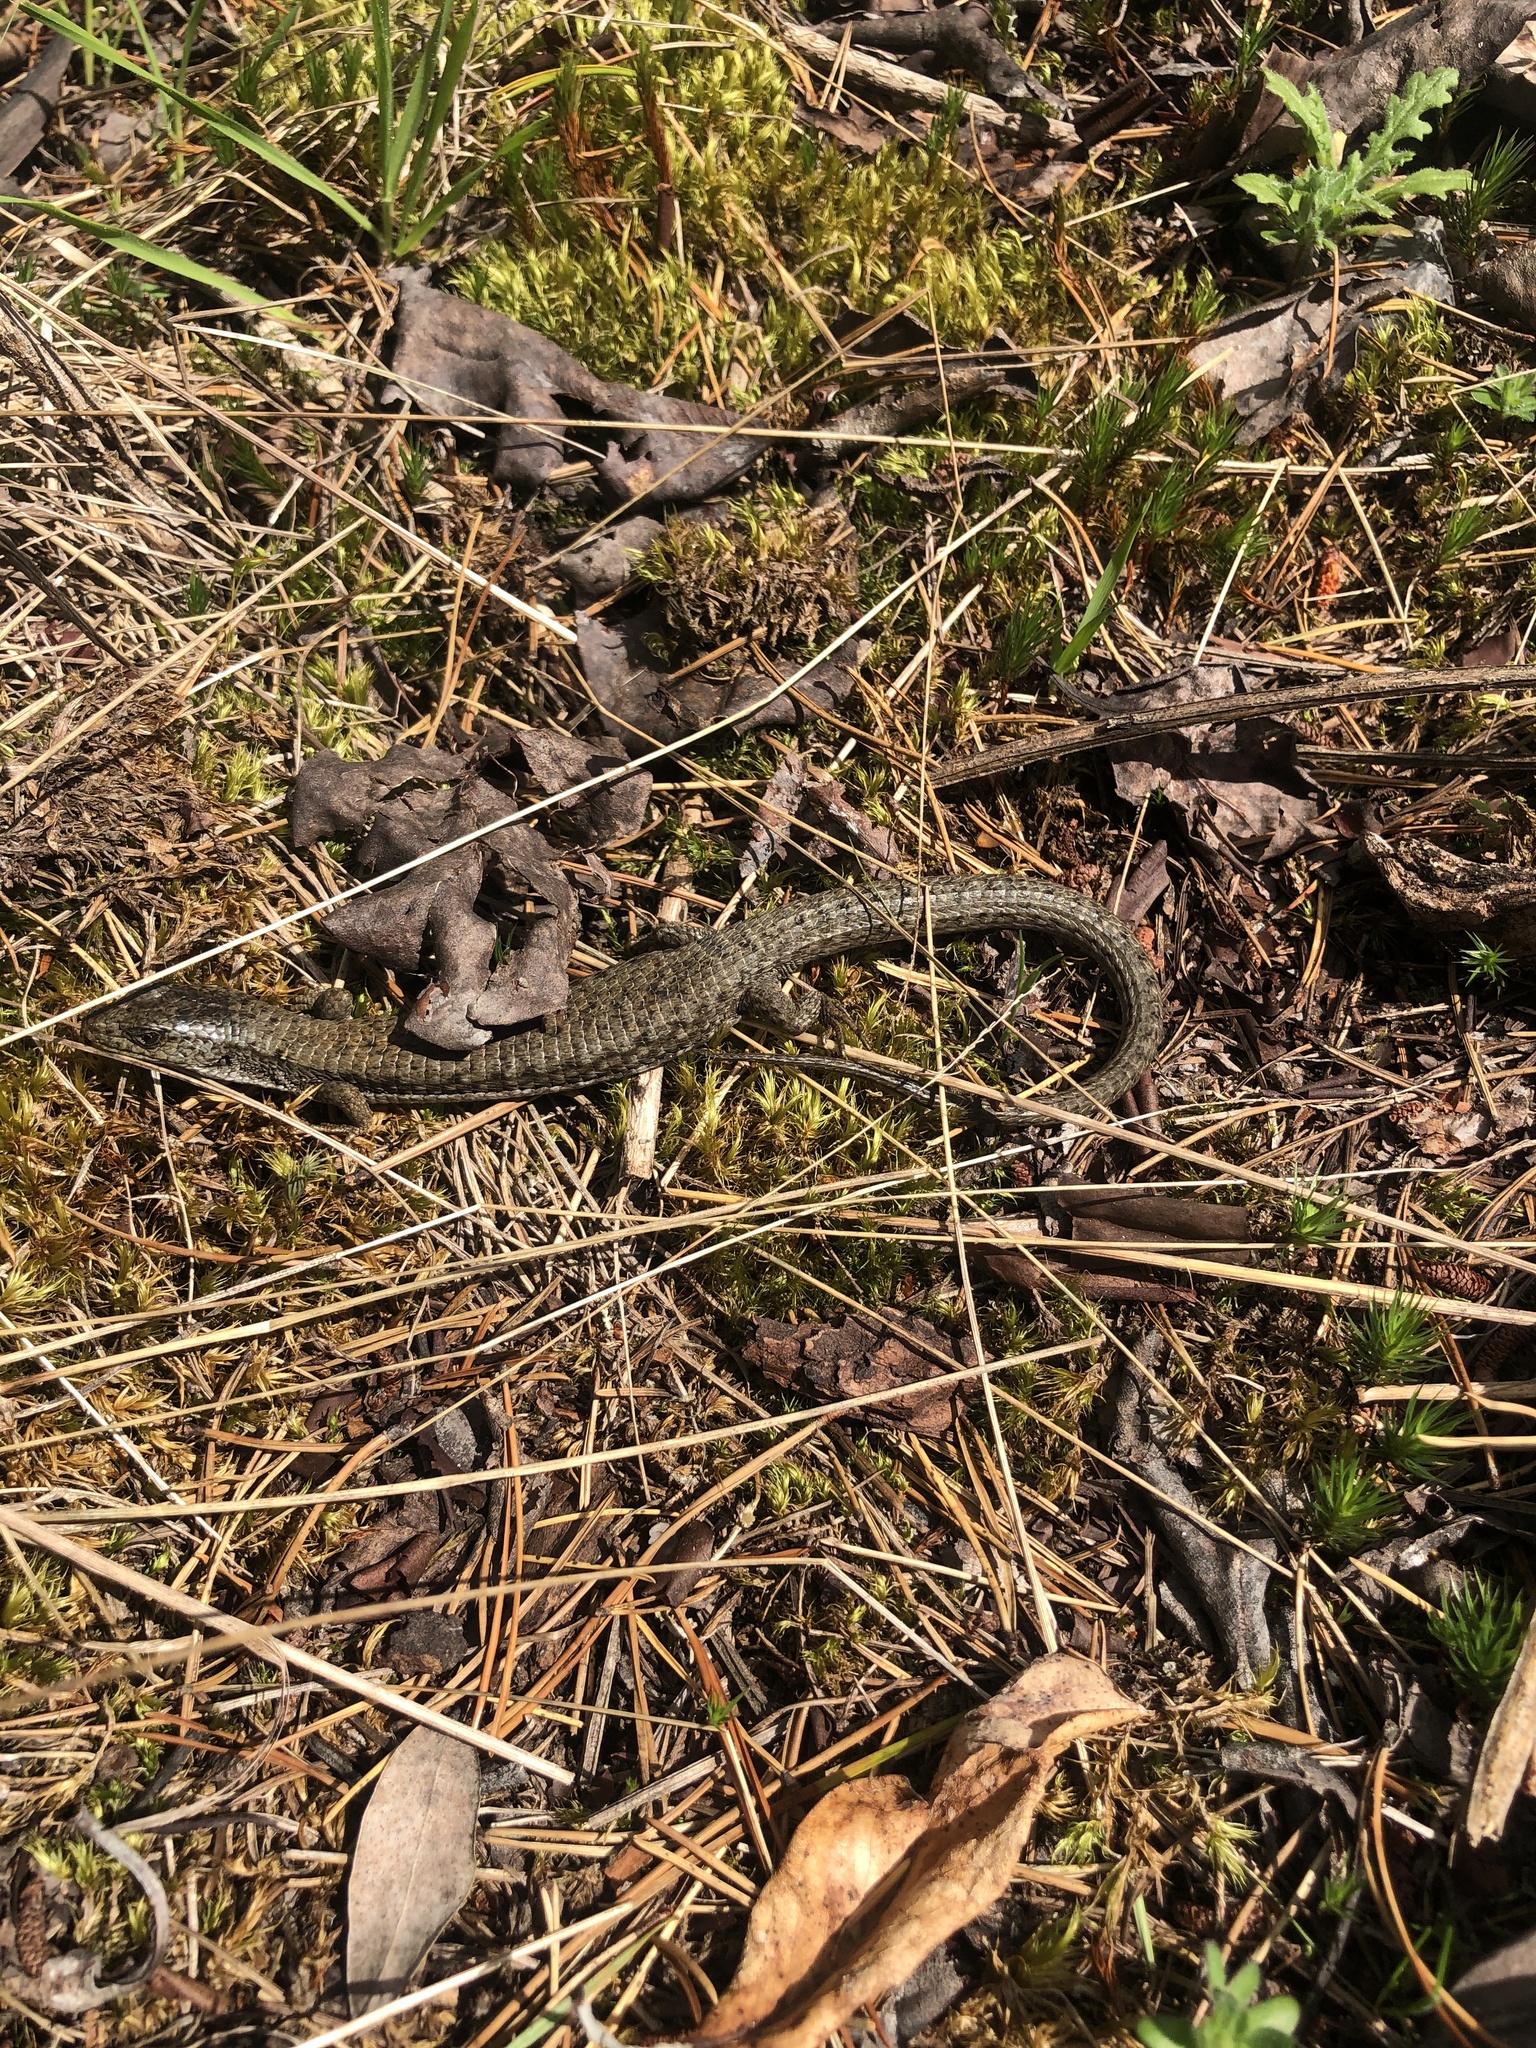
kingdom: Animalia
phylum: Chordata
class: Squamata
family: Anguidae
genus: Elgaria
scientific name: Elgaria coerulea
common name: Northern alligator lizard
